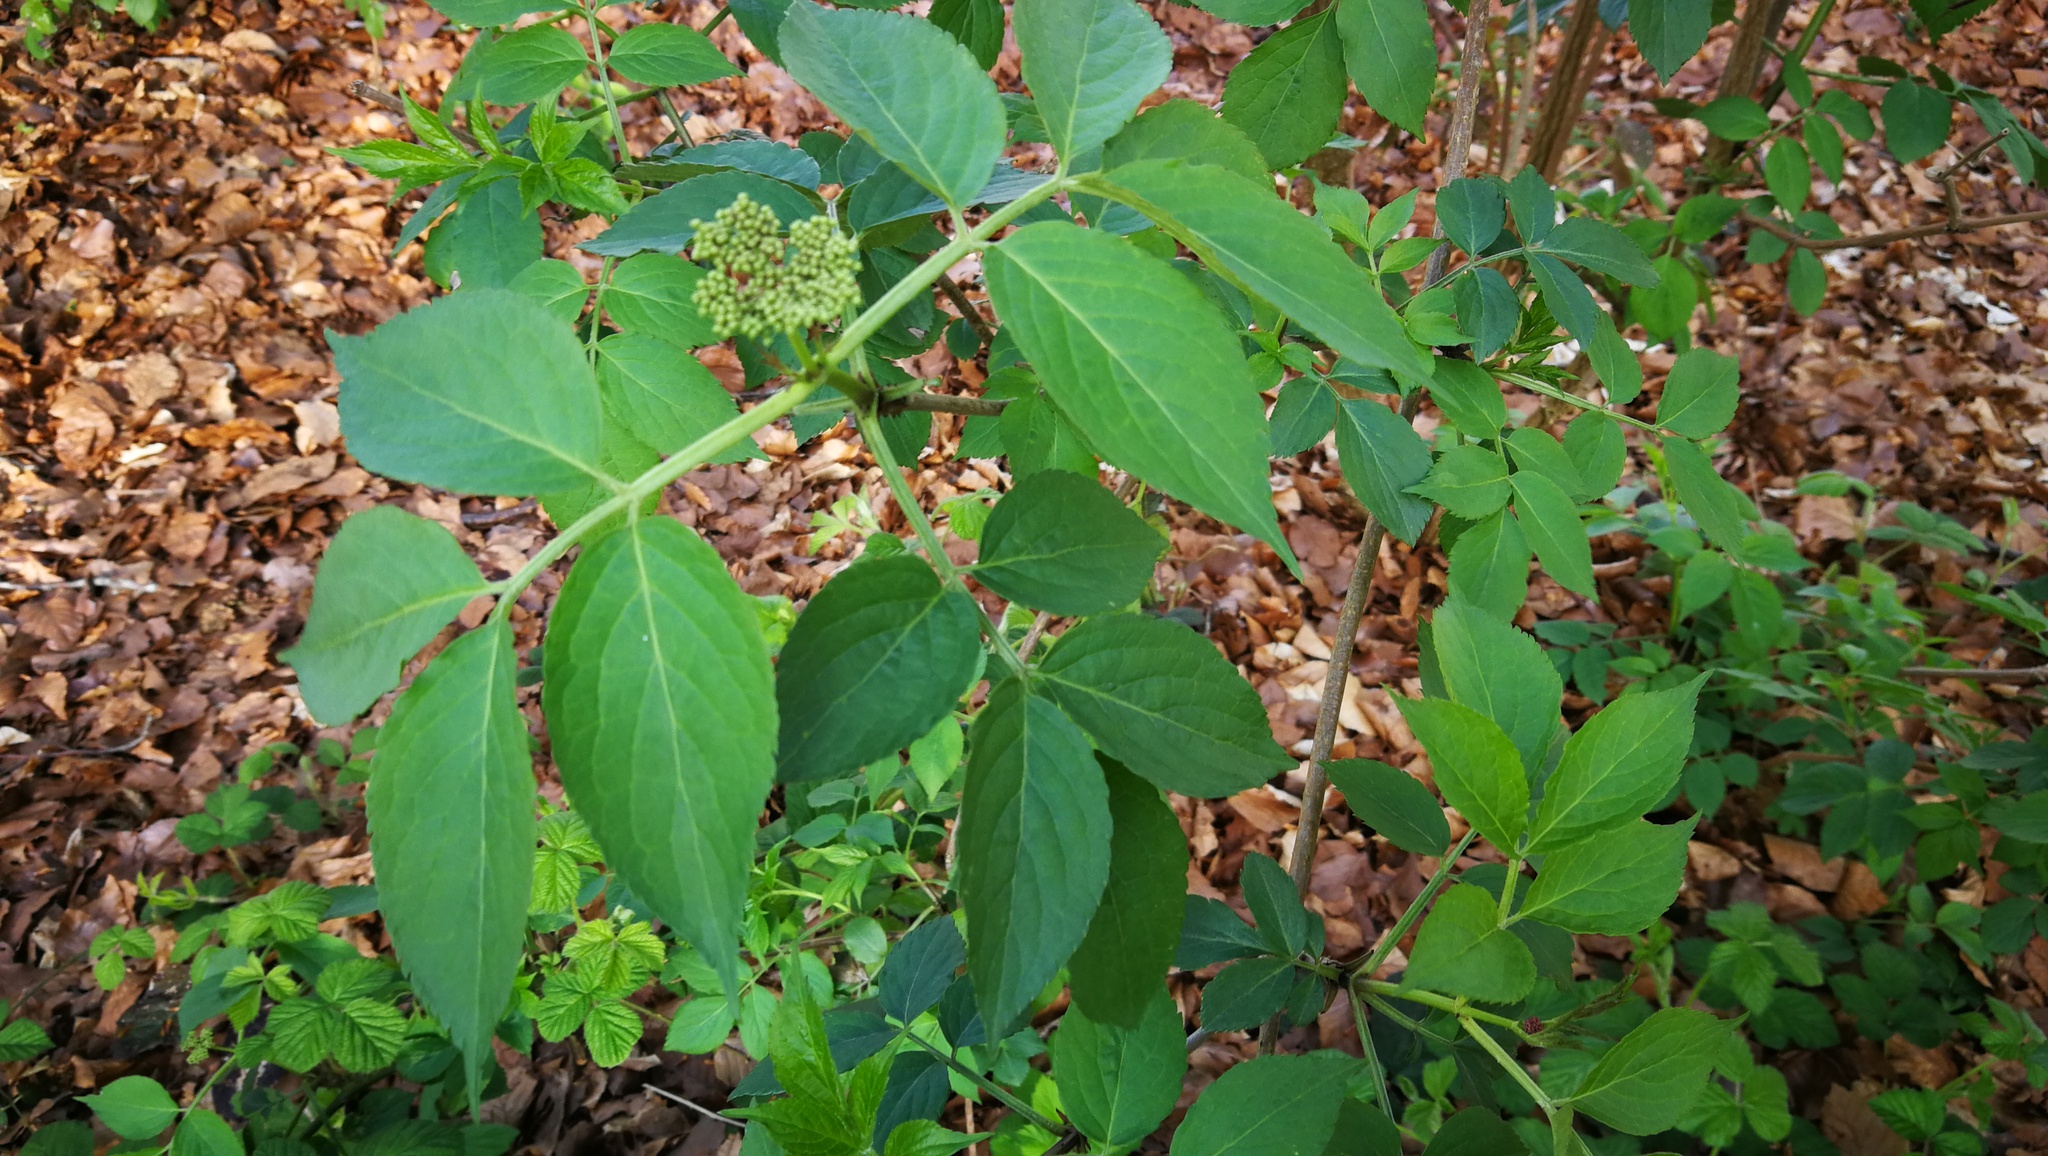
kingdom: Plantae
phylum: Tracheophyta
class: Magnoliopsida
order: Dipsacales
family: Viburnaceae
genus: Sambucus
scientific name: Sambucus nigra
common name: Elder
